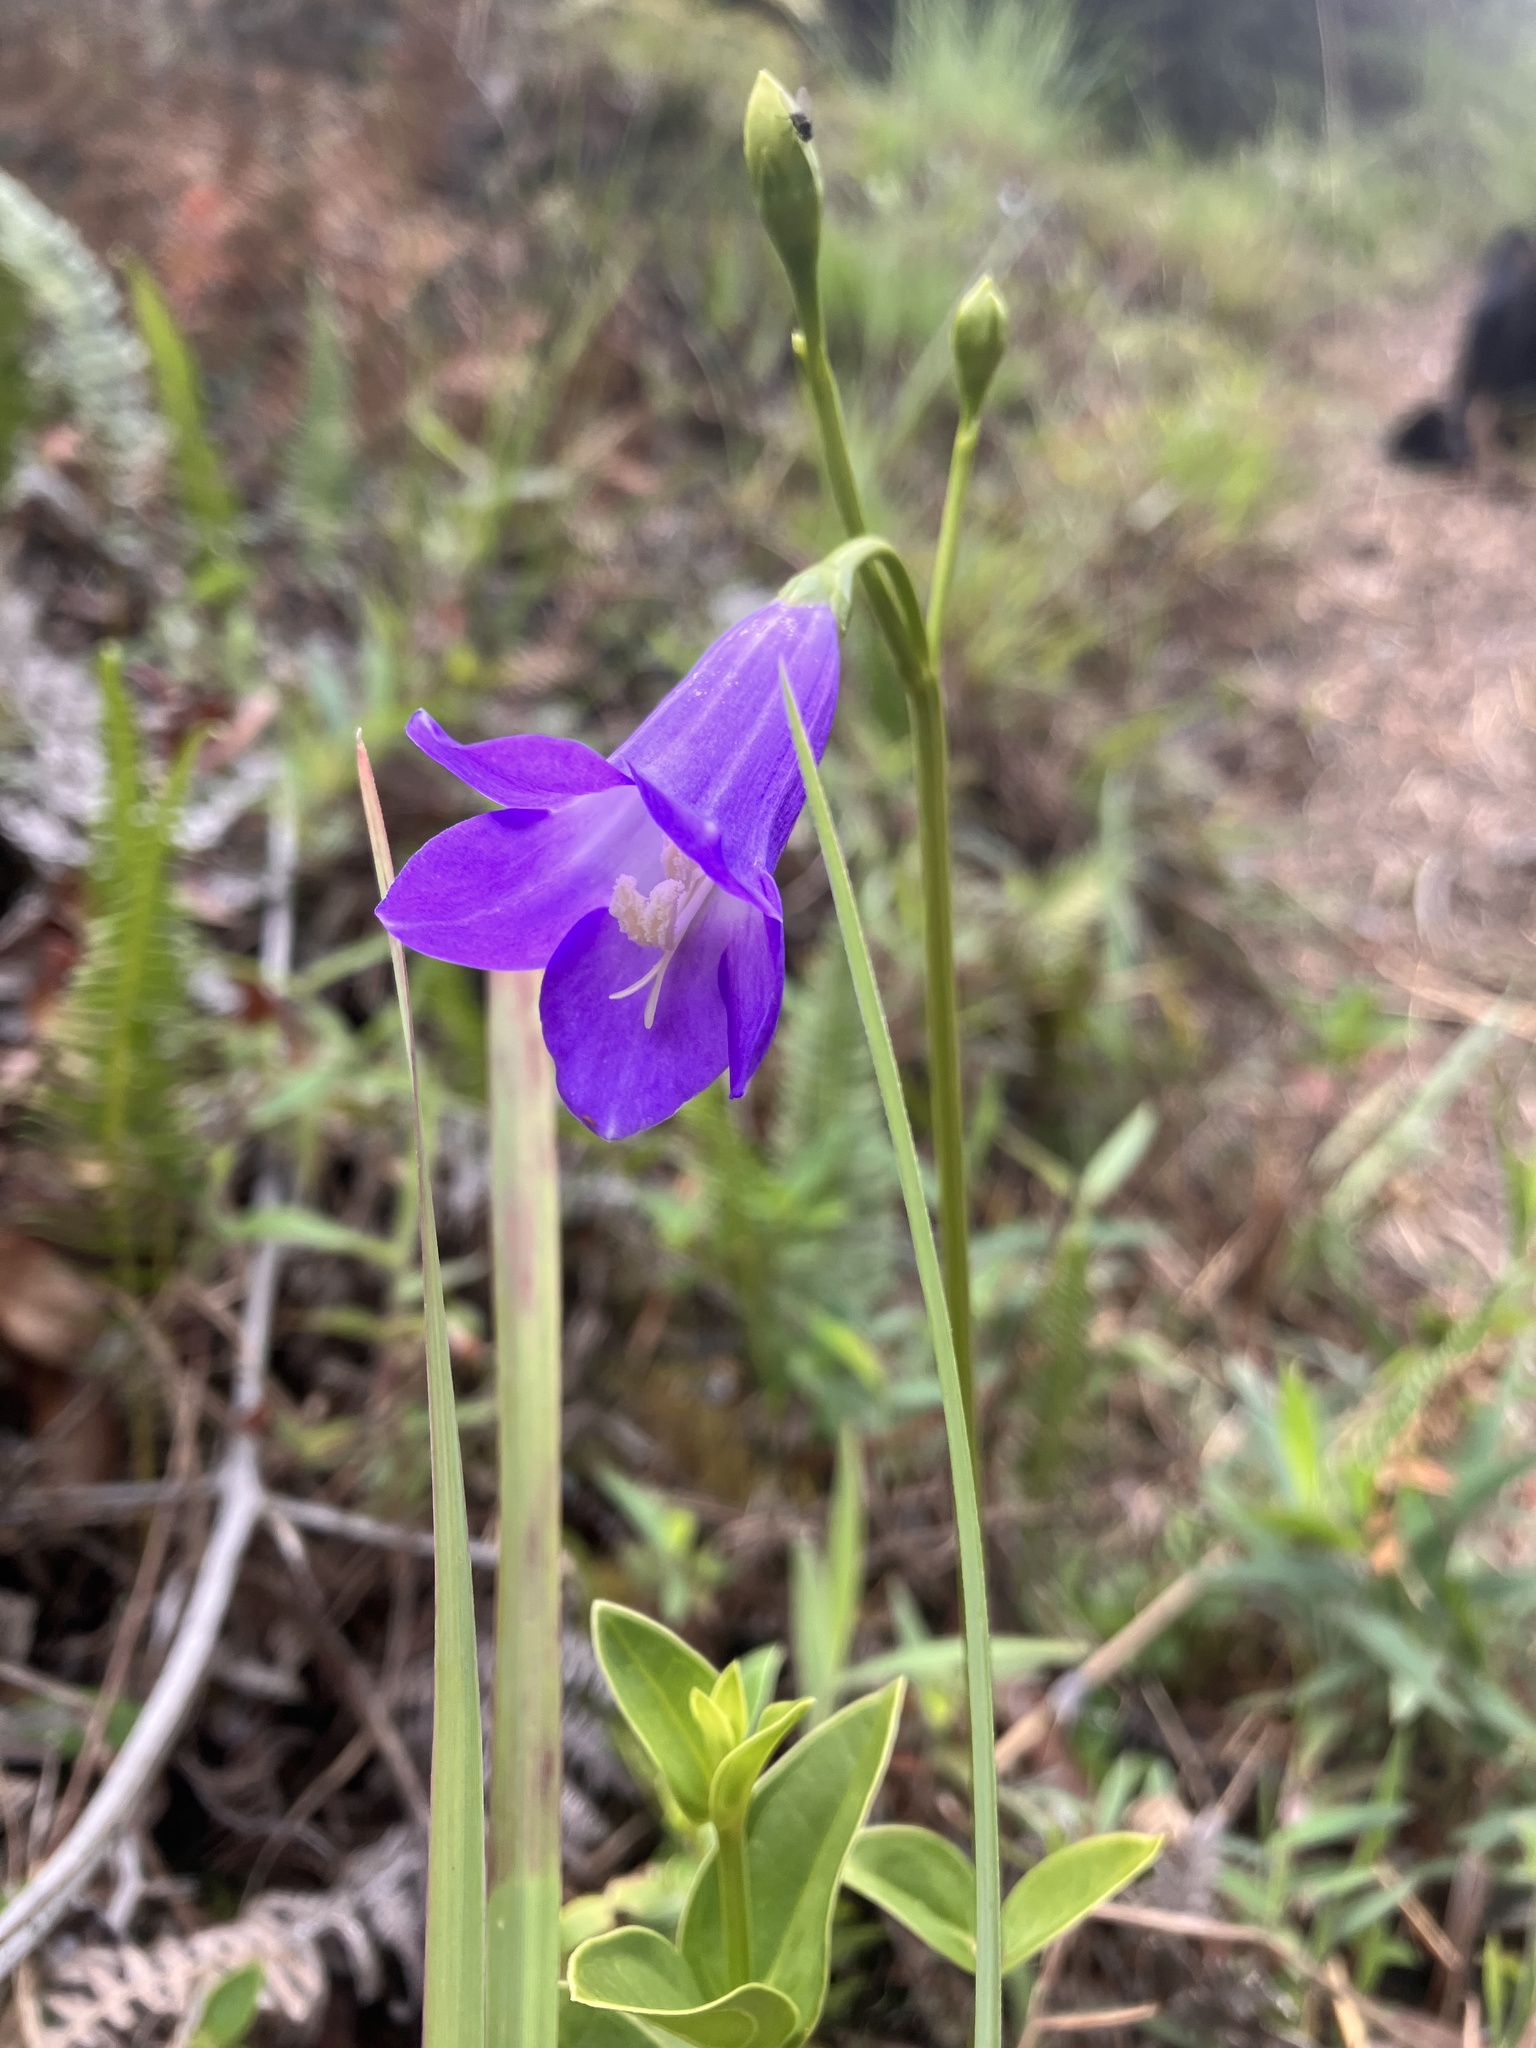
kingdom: Plantae
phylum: Tracheophyta
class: Magnoliopsida
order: Gentianales
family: Gentianaceae
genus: Chelonanthus
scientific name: Chelonanthus purpurascens
